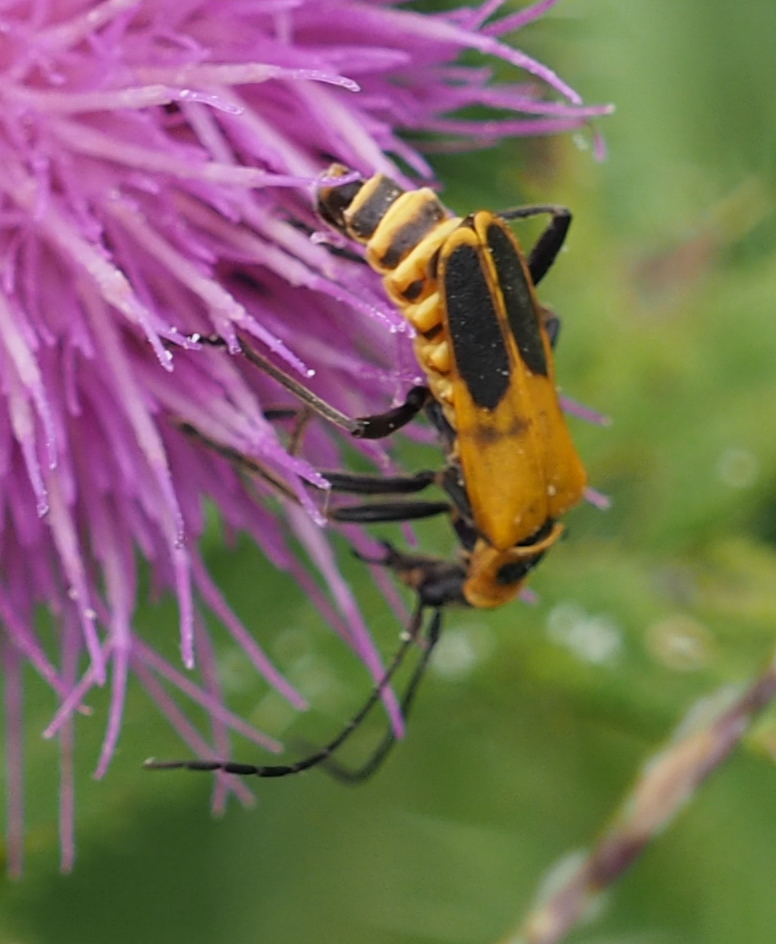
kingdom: Animalia
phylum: Arthropoda
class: Insecta
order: Coleoptera
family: Cantharidae
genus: Chauliognathus
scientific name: Chauliognathus pensylvanicus
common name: Goldenrod soldier beetle
